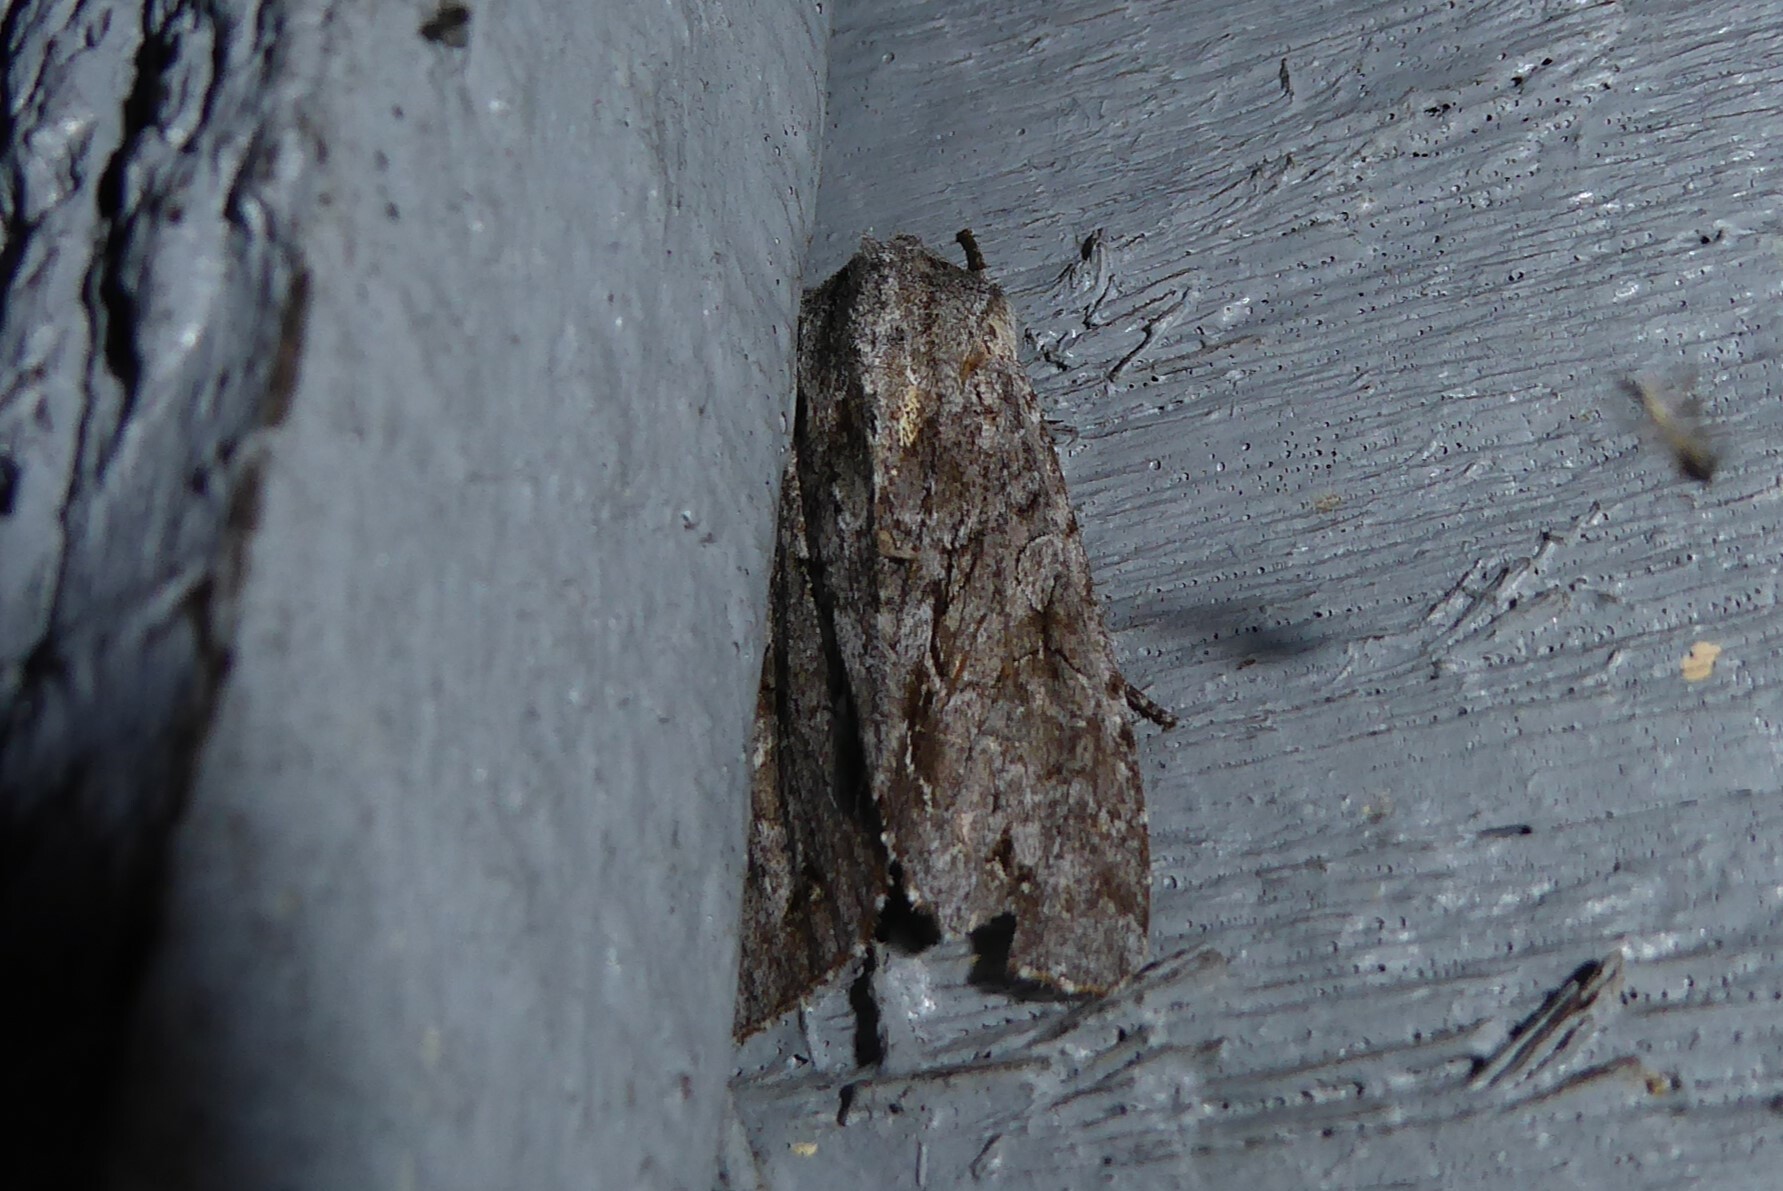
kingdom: Animalia
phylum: Arthropoda
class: Insecta
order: Lepidoptera
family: Noctuidae
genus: Ichneutica
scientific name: Ichneutica
